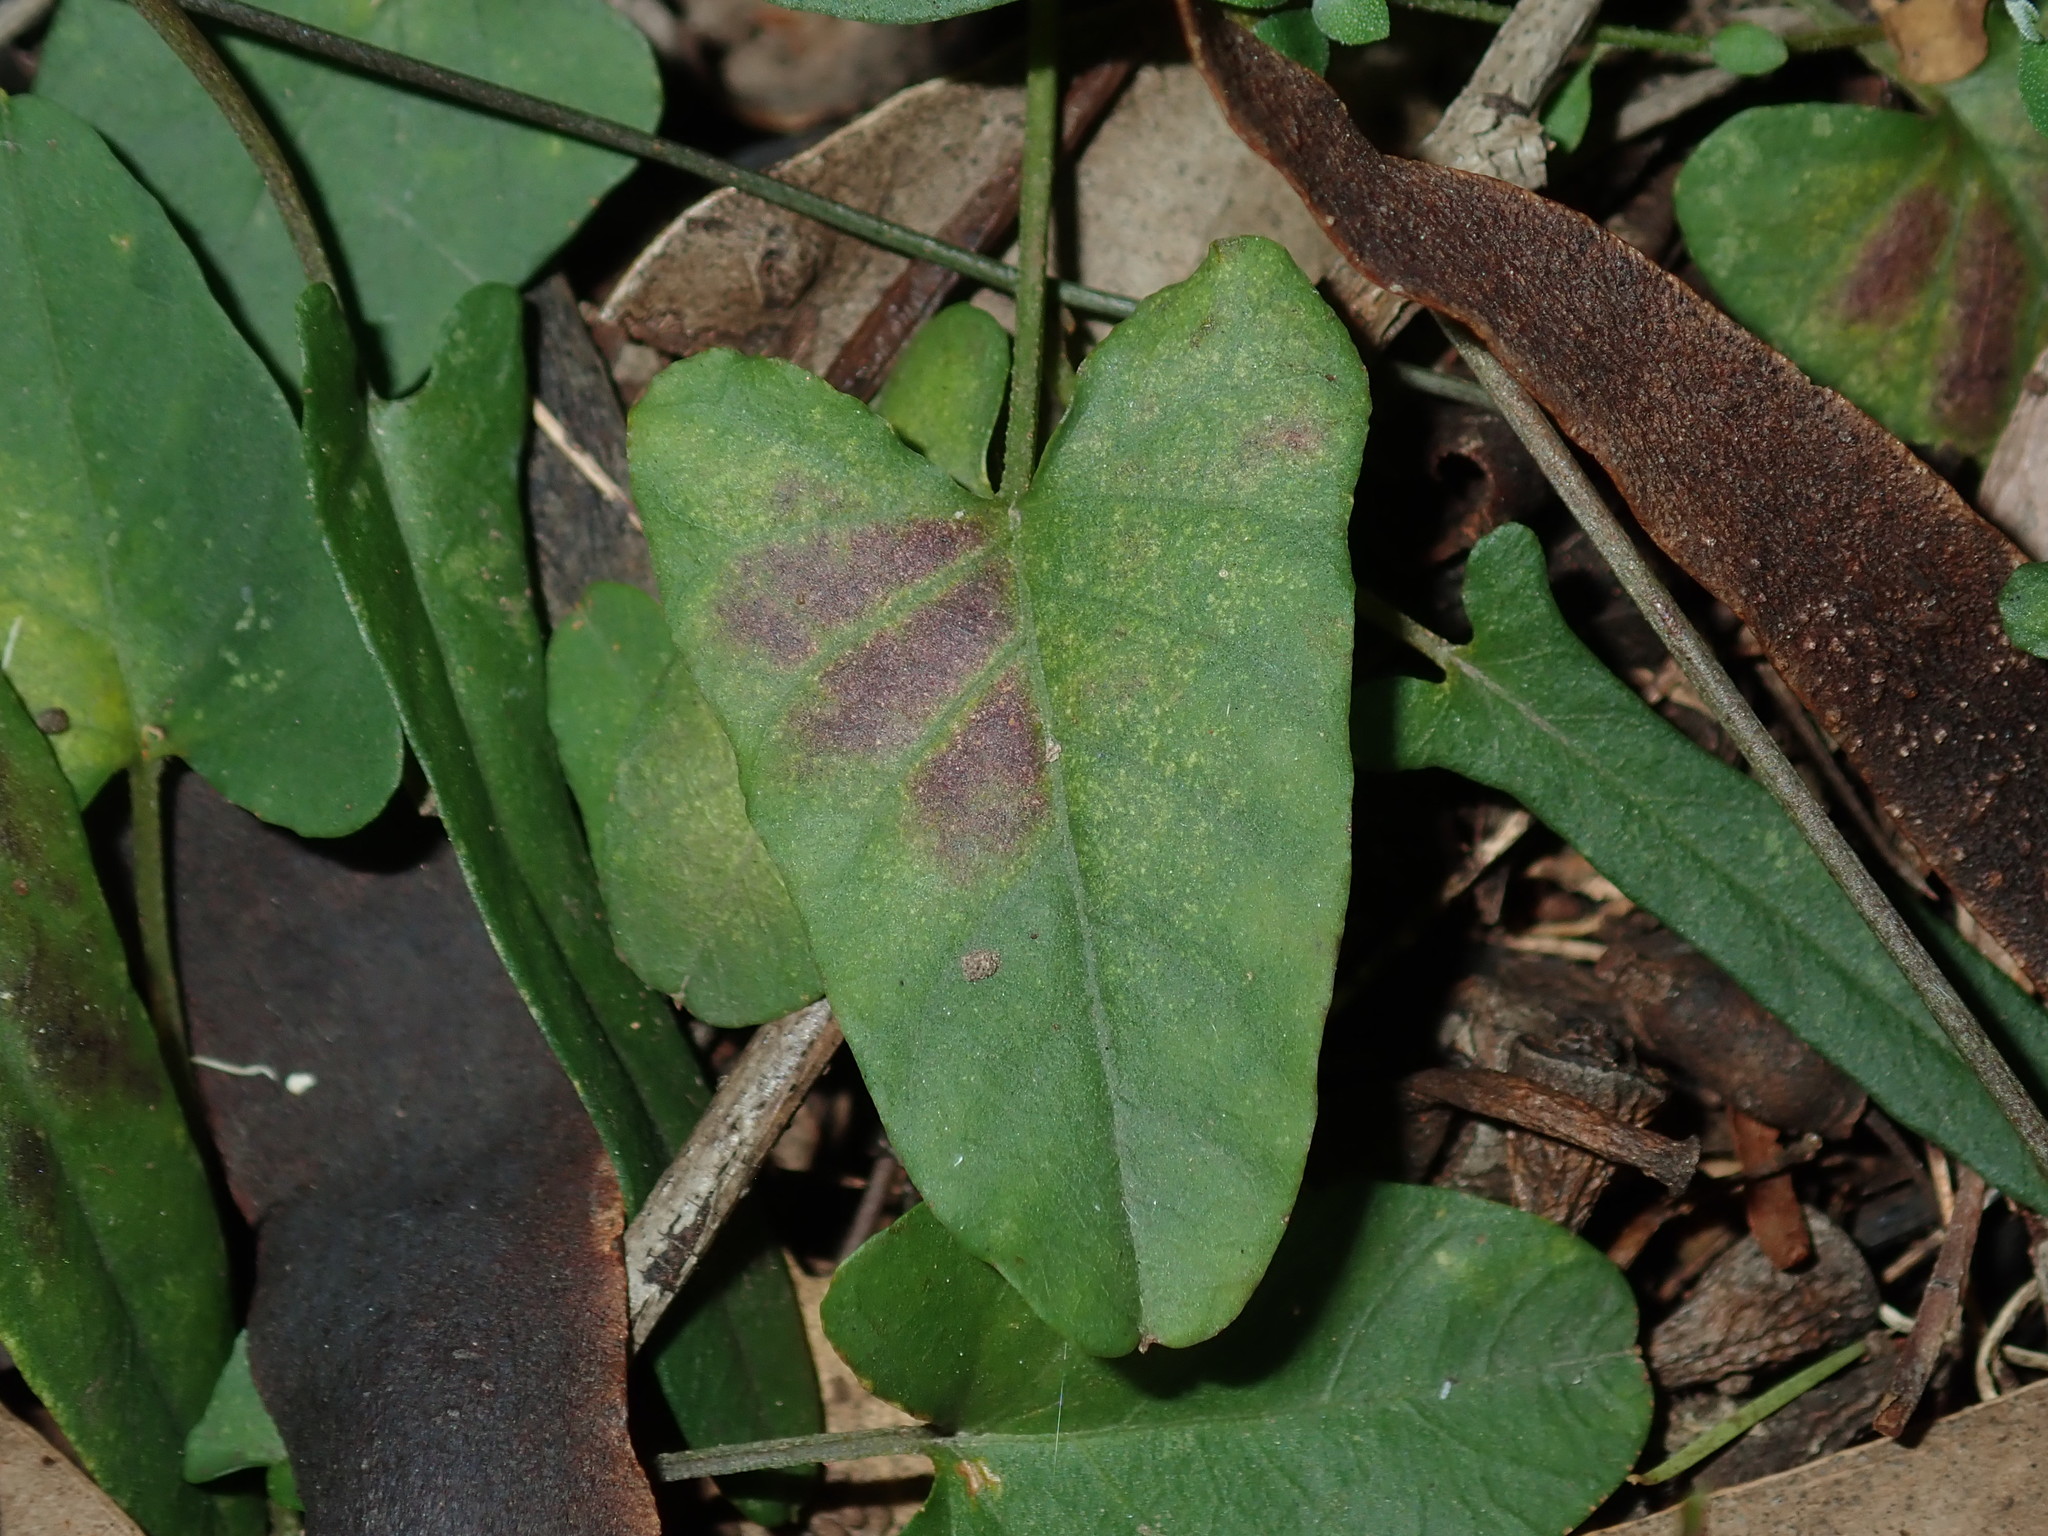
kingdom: Plantae
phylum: Tracheophyta
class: Magnoliopsida
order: Solanales
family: Convolvulaceae
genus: Polymeria
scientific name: Polymeria calycina
